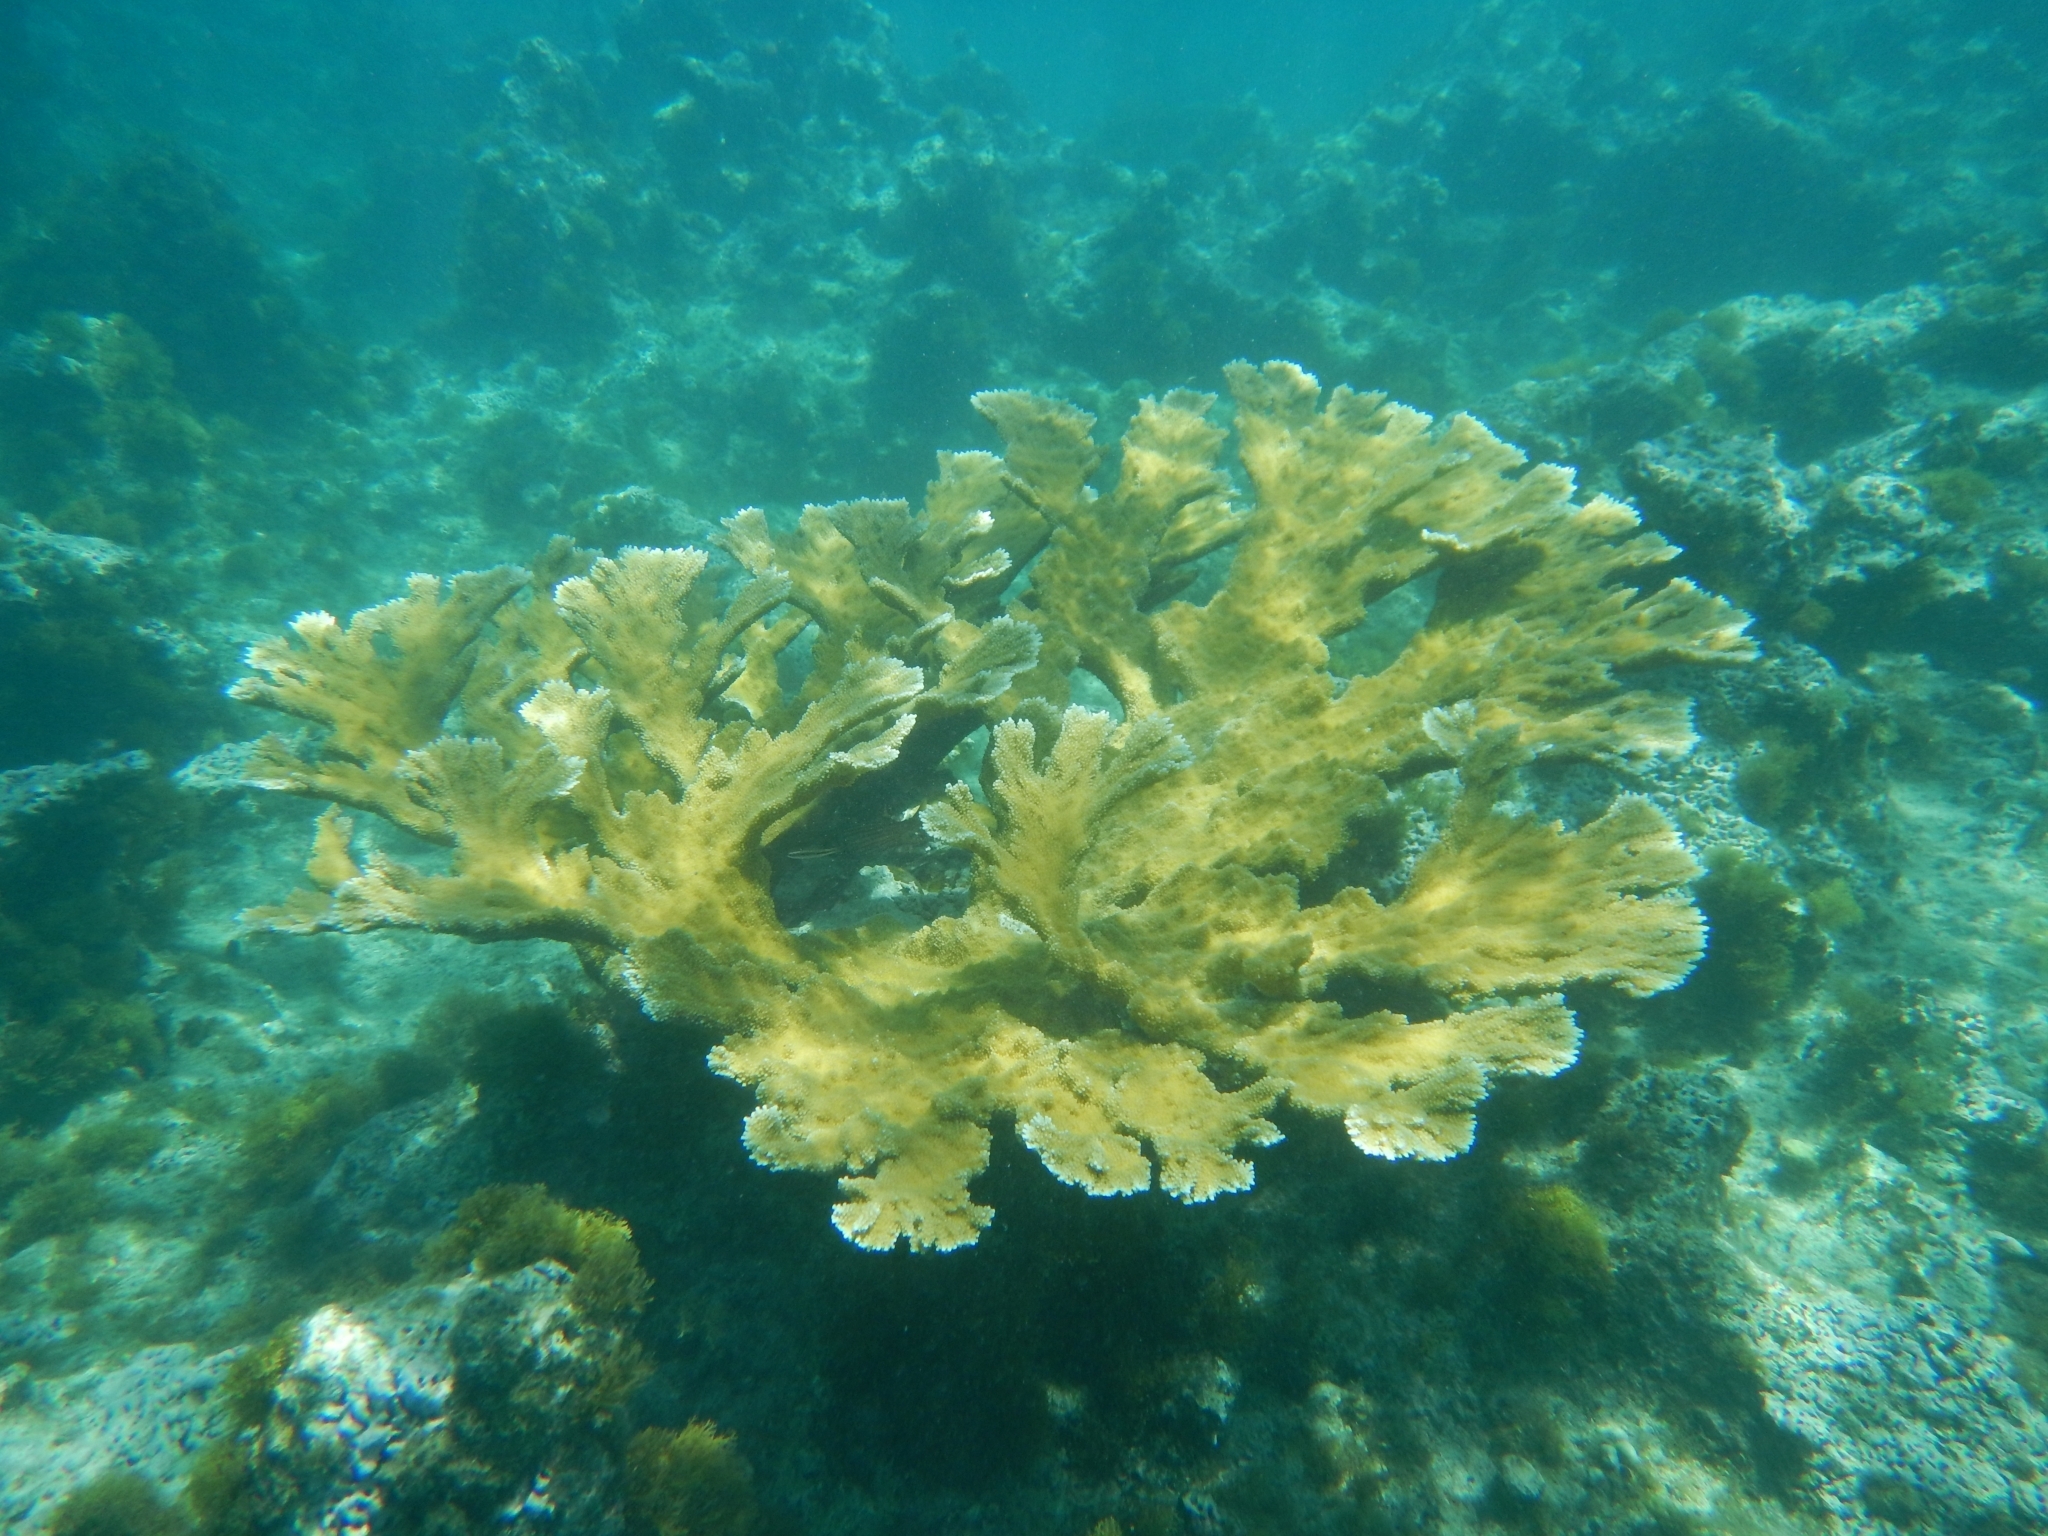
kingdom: Animalia
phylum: Cnidaria
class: Anthozoa
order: Scleractinia
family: Acroporidae
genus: Acropora
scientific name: Acropora palmata
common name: Elkhorn coral
